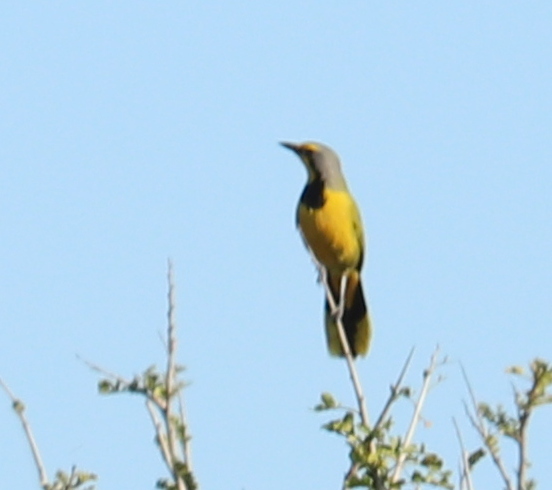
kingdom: Animalia
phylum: Chordata
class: Aves
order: Passeriformes
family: Malaconotidae
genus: Telophorus
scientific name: Telophorus zeylonus
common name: Bokmakierie
